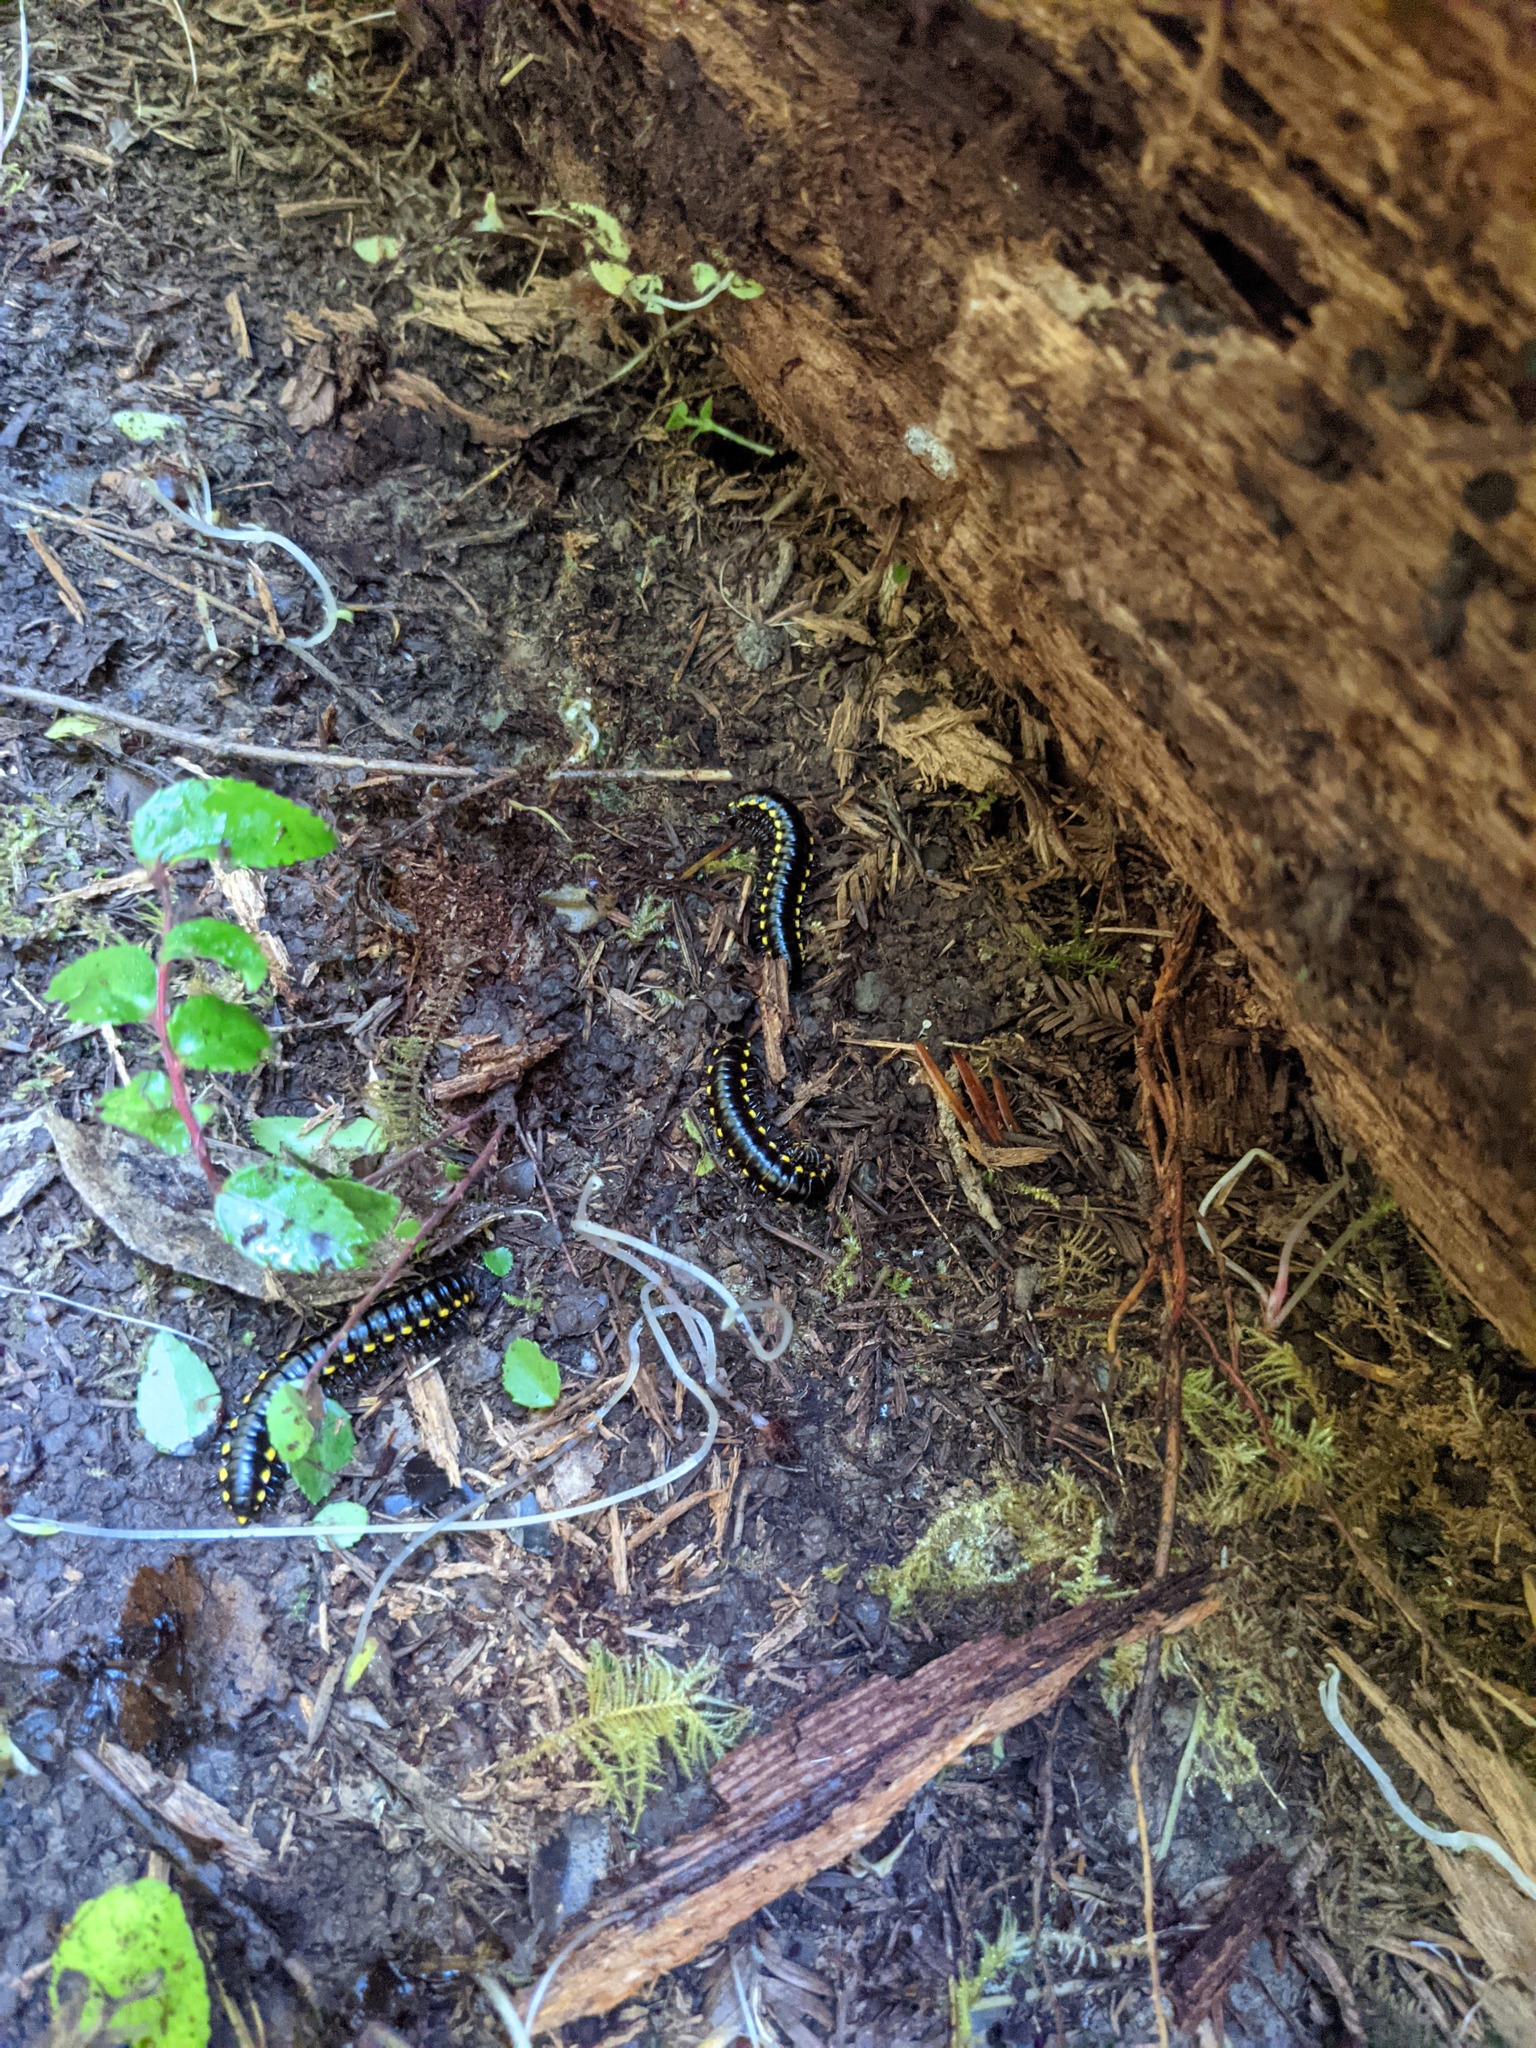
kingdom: Animalia
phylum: Arthropoda
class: Diplopoda
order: Polydesmida
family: Xystodesmidae
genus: Harpaphe
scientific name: Harpaphe haydeniana
